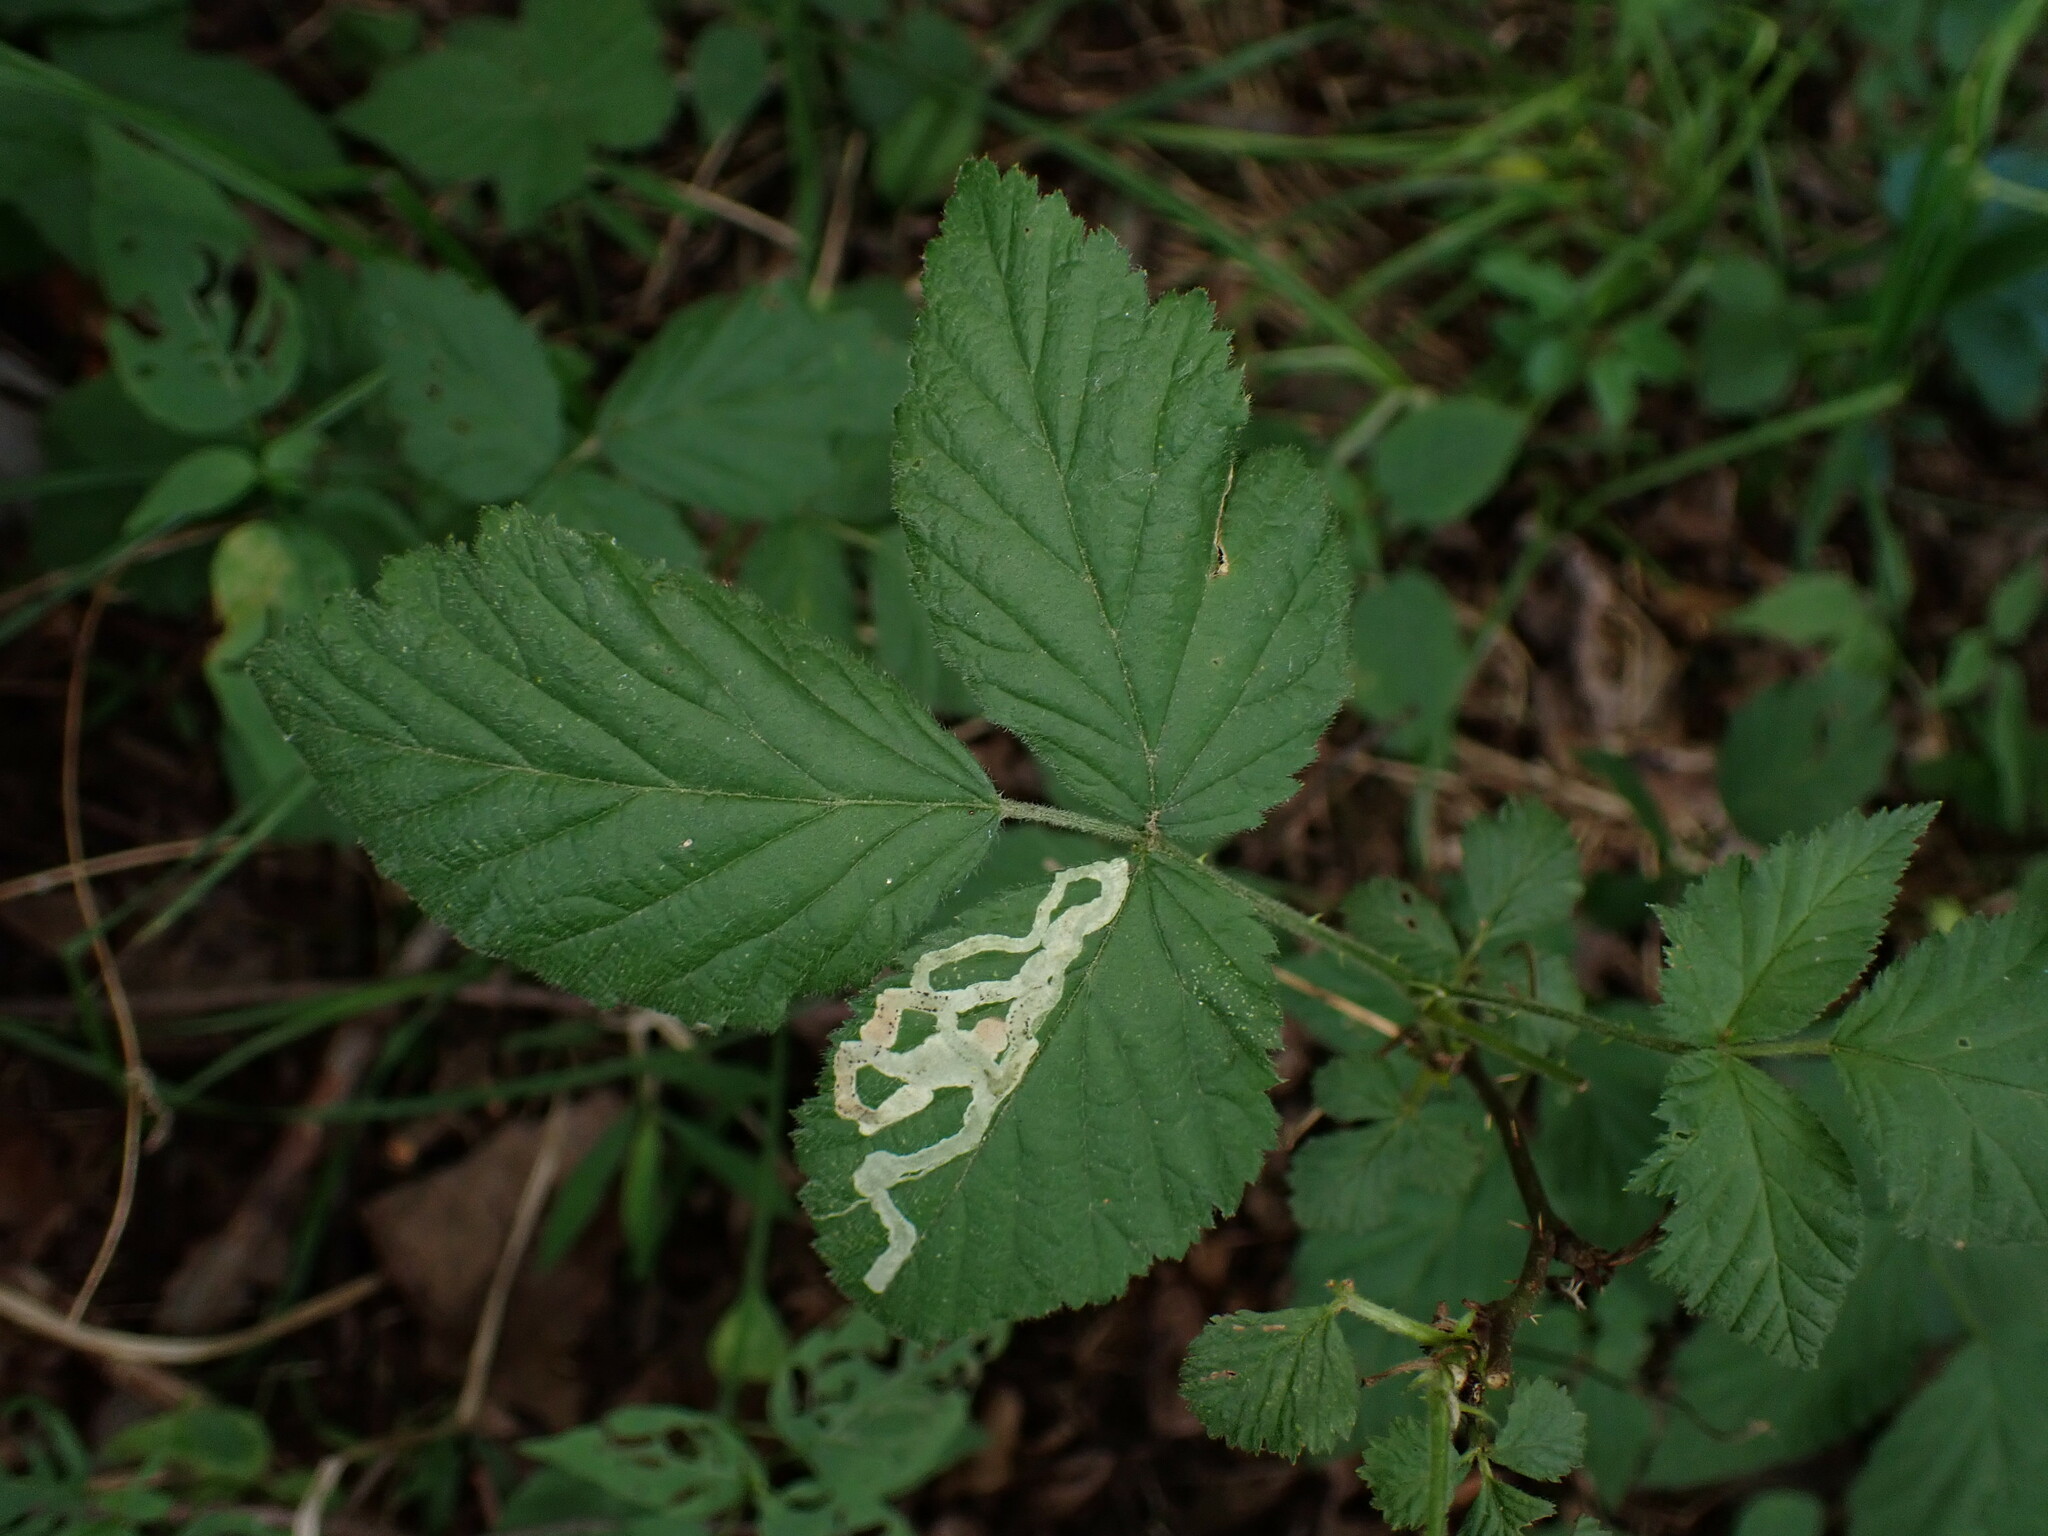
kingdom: Animalia
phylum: Arthropoda
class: Insecta
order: Diptera
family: Agromyzidae
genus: Agromyza
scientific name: Agromyza vockerothi
